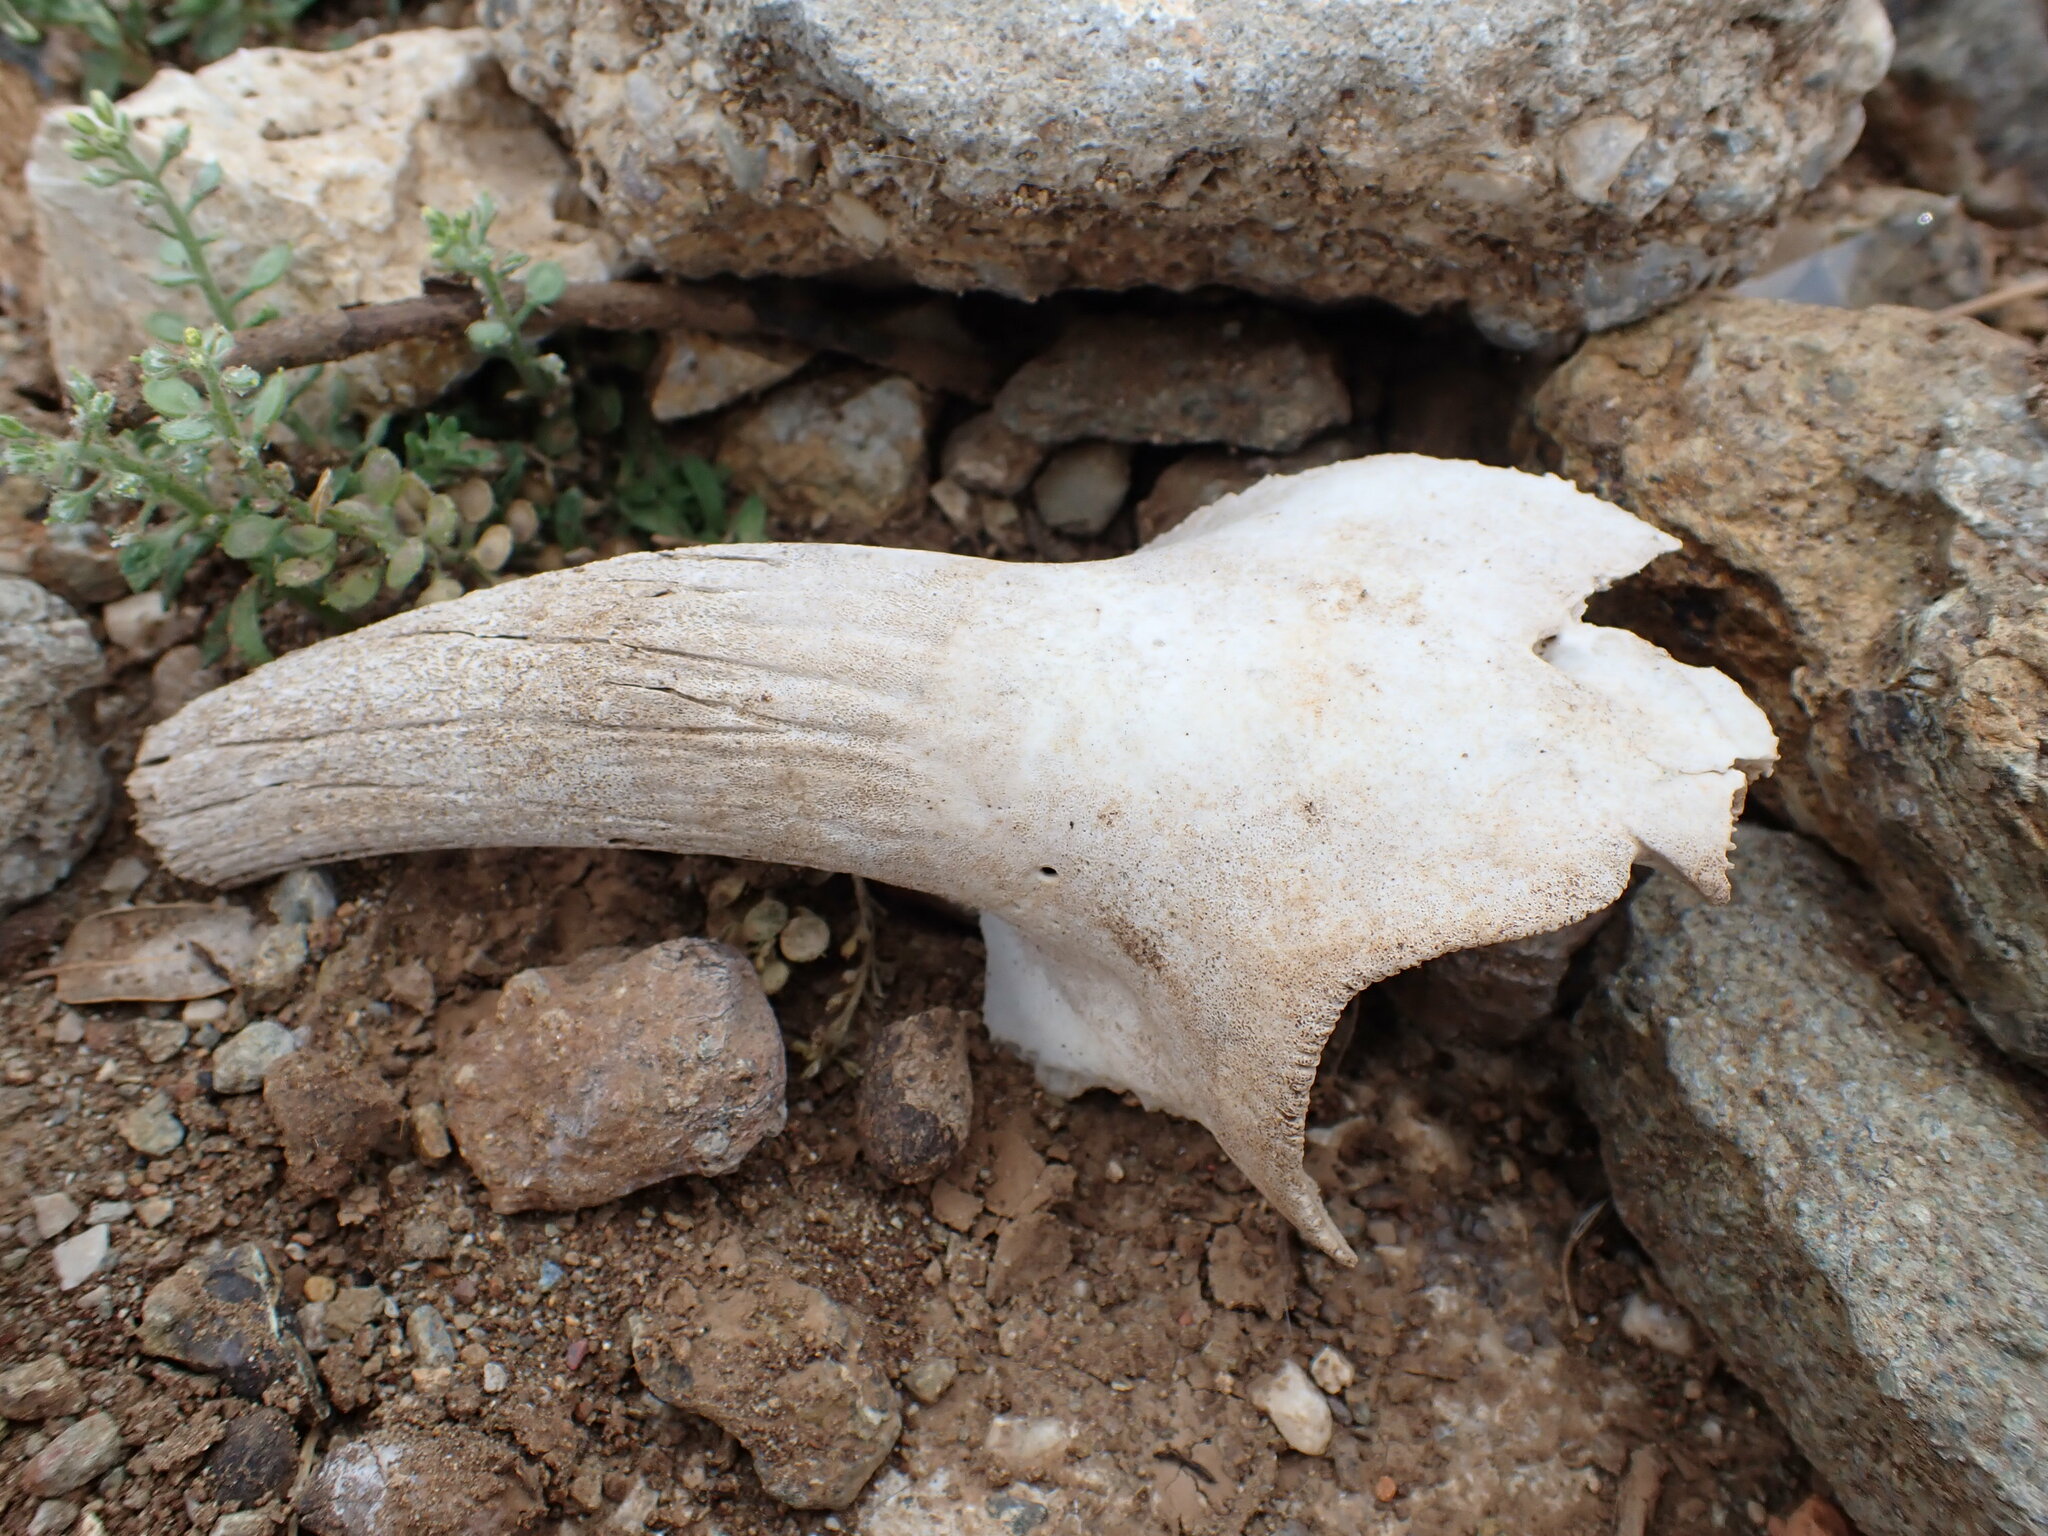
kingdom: Animalia
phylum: Chordata
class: Mammalia
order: Artiodactyla
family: Bovidae
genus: Capra
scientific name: Capra hircus
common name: Domestic goat
